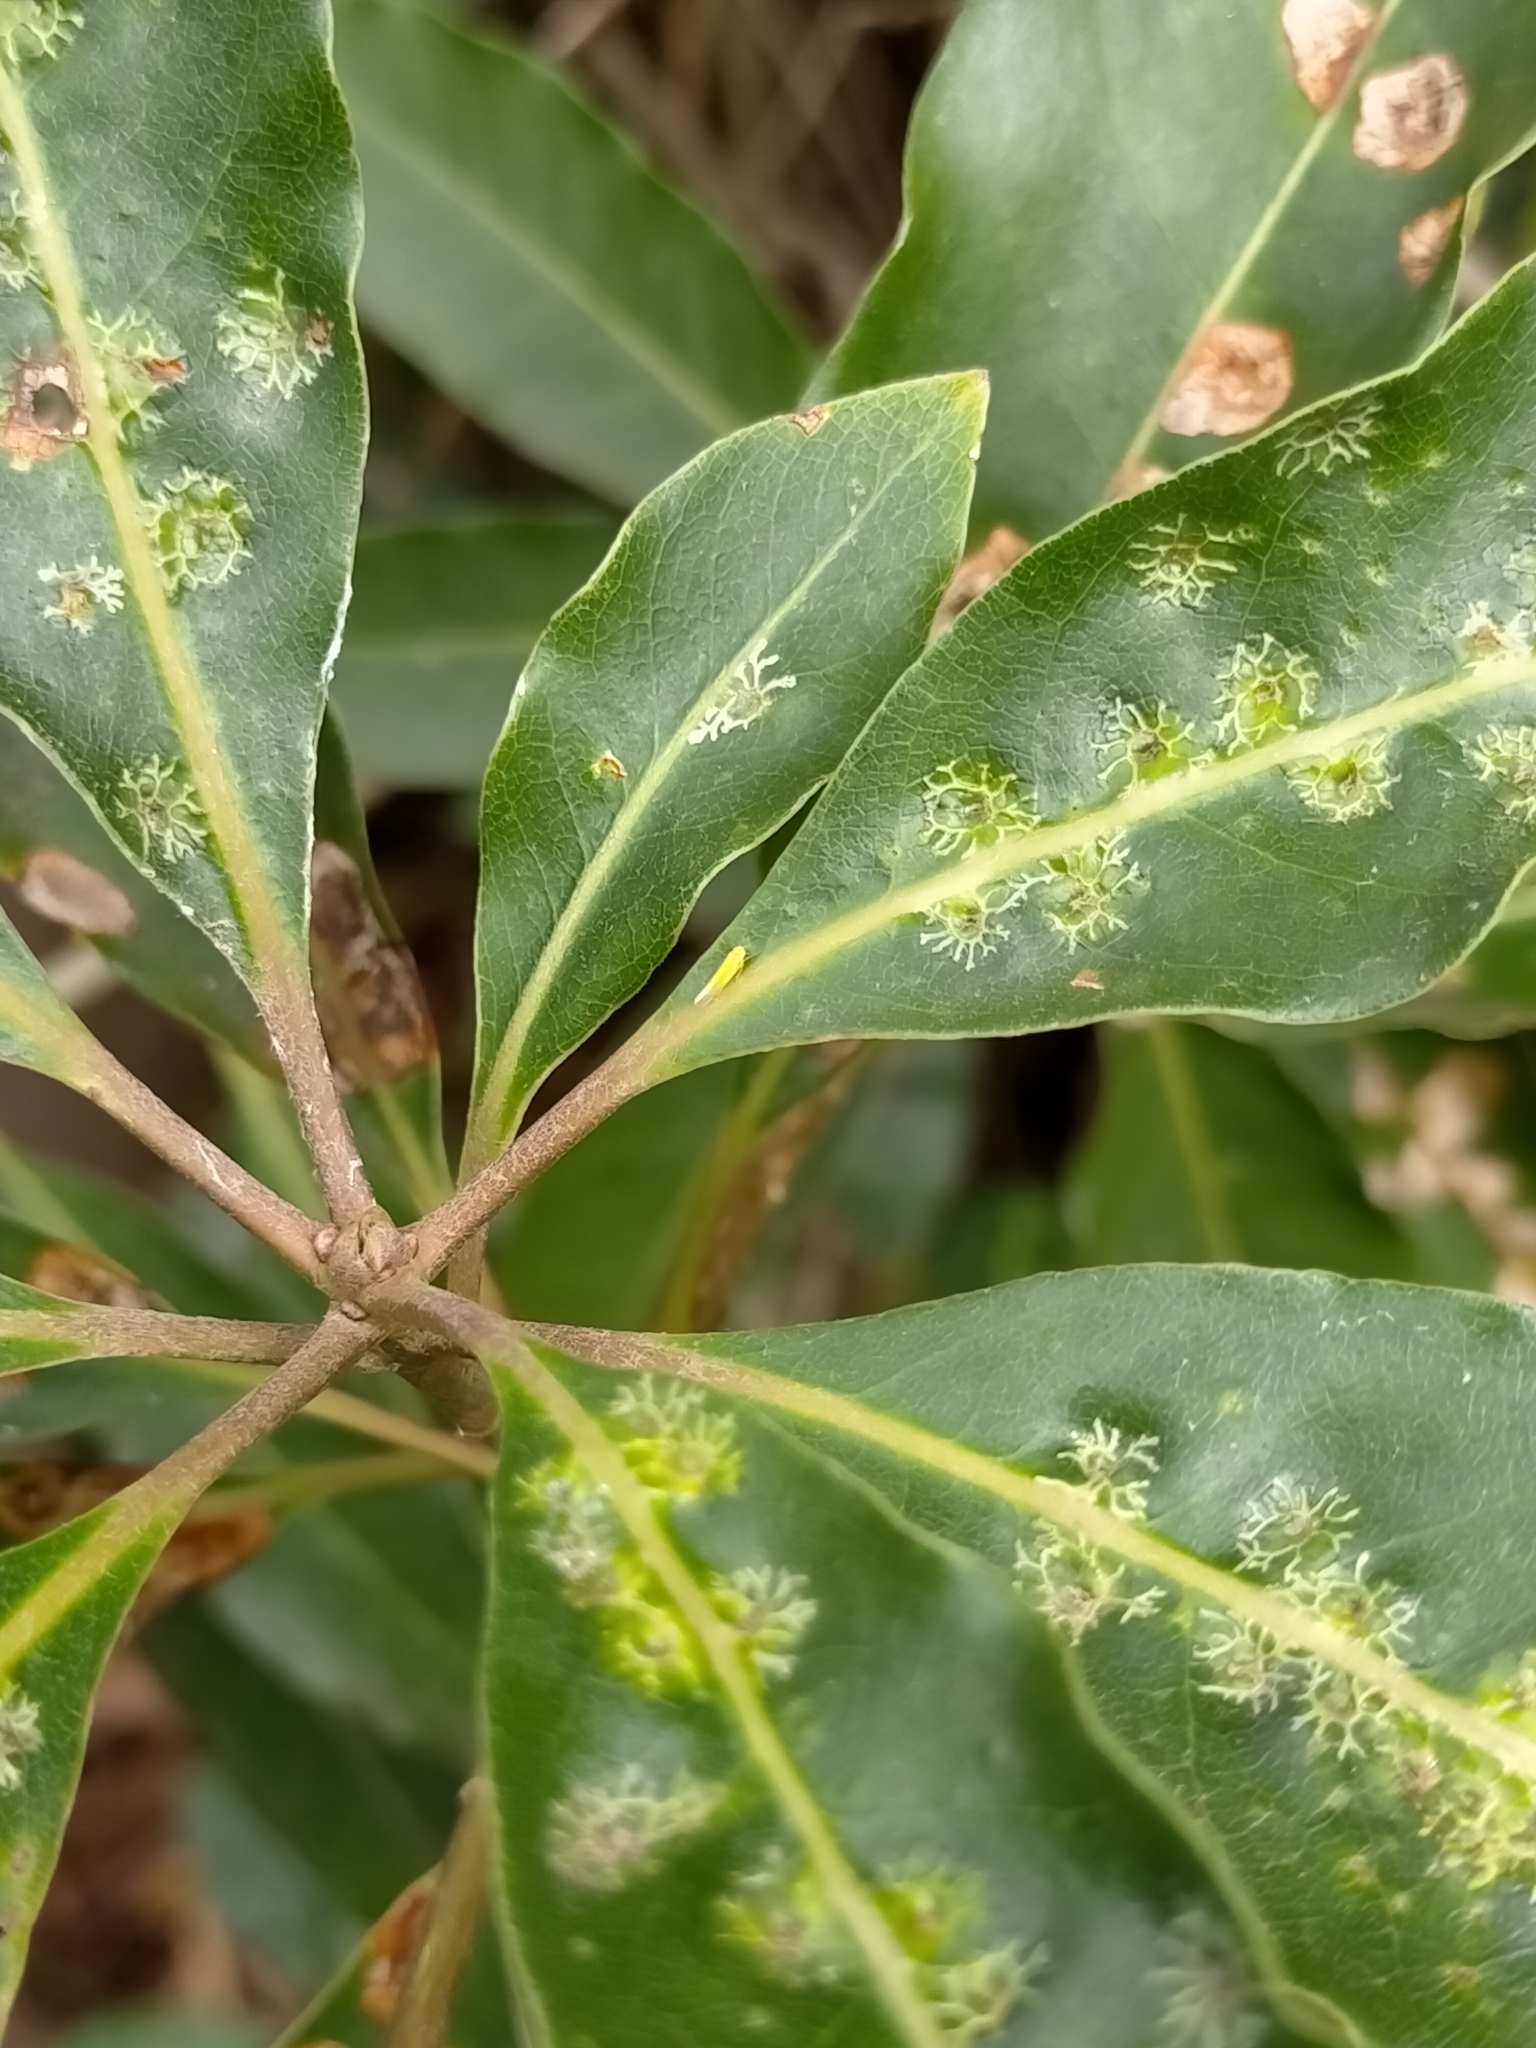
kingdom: Animalia
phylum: Arthropoda
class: Insecta
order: Diptera
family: Agromyzidae
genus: Phytoliriomyza
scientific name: Phytoliriomyza pittosporophylli
